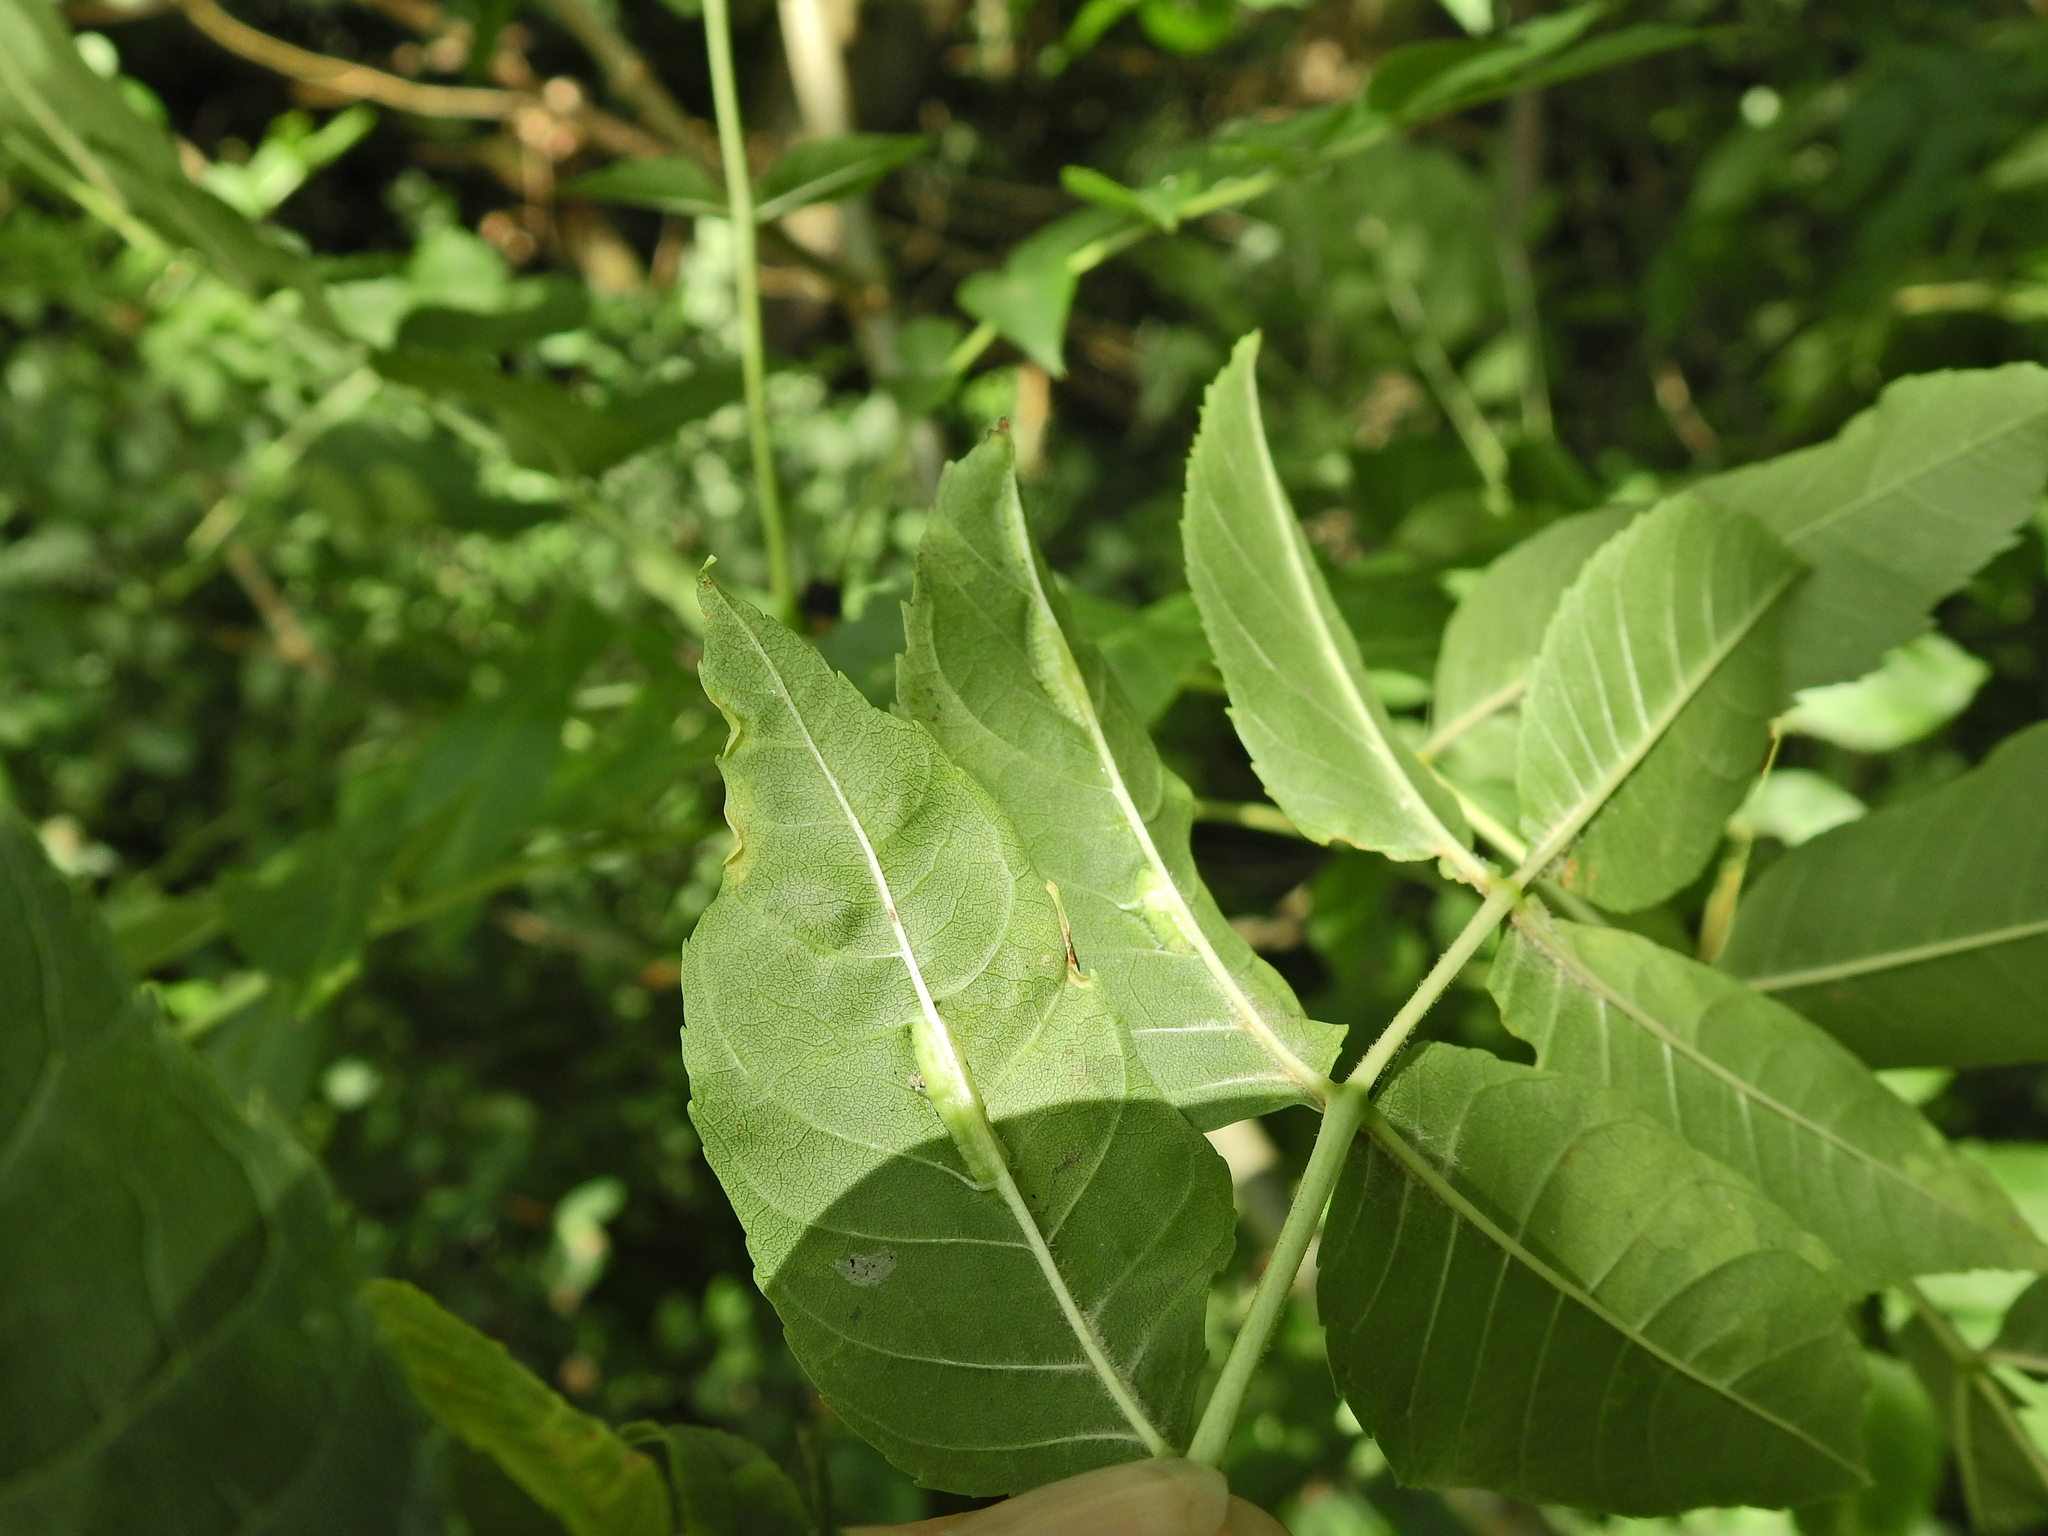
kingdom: Animalia
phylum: Arthropoda
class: Insecta
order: Diptera
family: Cecidomyiidae
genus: Dasineura
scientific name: Dasineura fraxini
